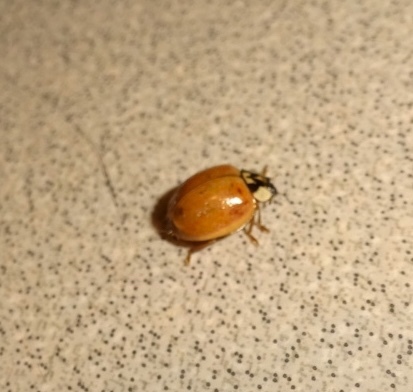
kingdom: Animalia
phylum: Arthropoda
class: Insecta
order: Coleoptera
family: Coccinellidae
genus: Harmonia
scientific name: Harmonia axyridis
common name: Harlequin ladybird
